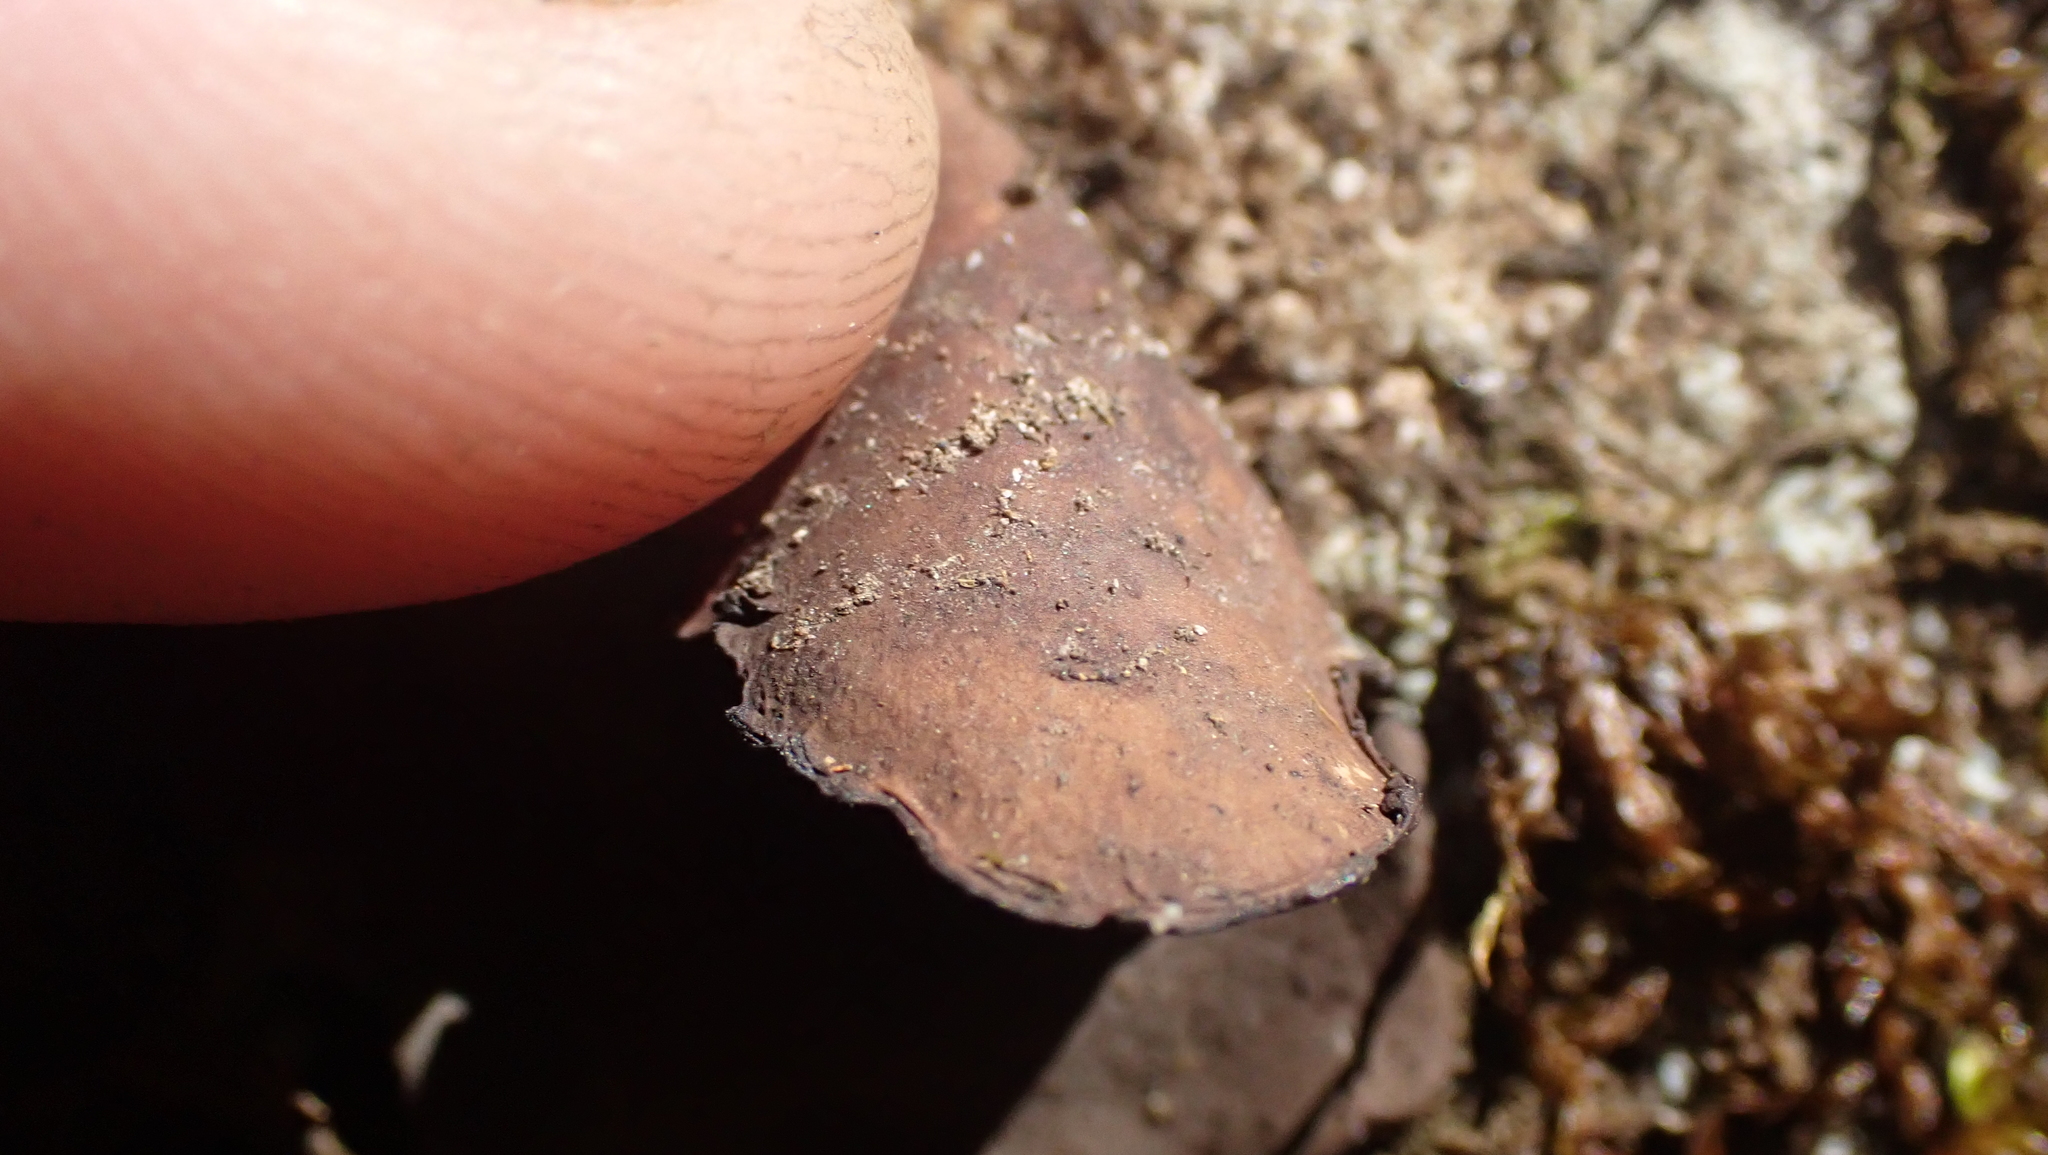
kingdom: Fungi
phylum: Ascomycota
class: Lecanoromycetes
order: Umbilicariales
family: Umbilicariaceae
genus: Umbilicaria
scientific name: Umbilicaria mammulata
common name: Smooth rock tripe
